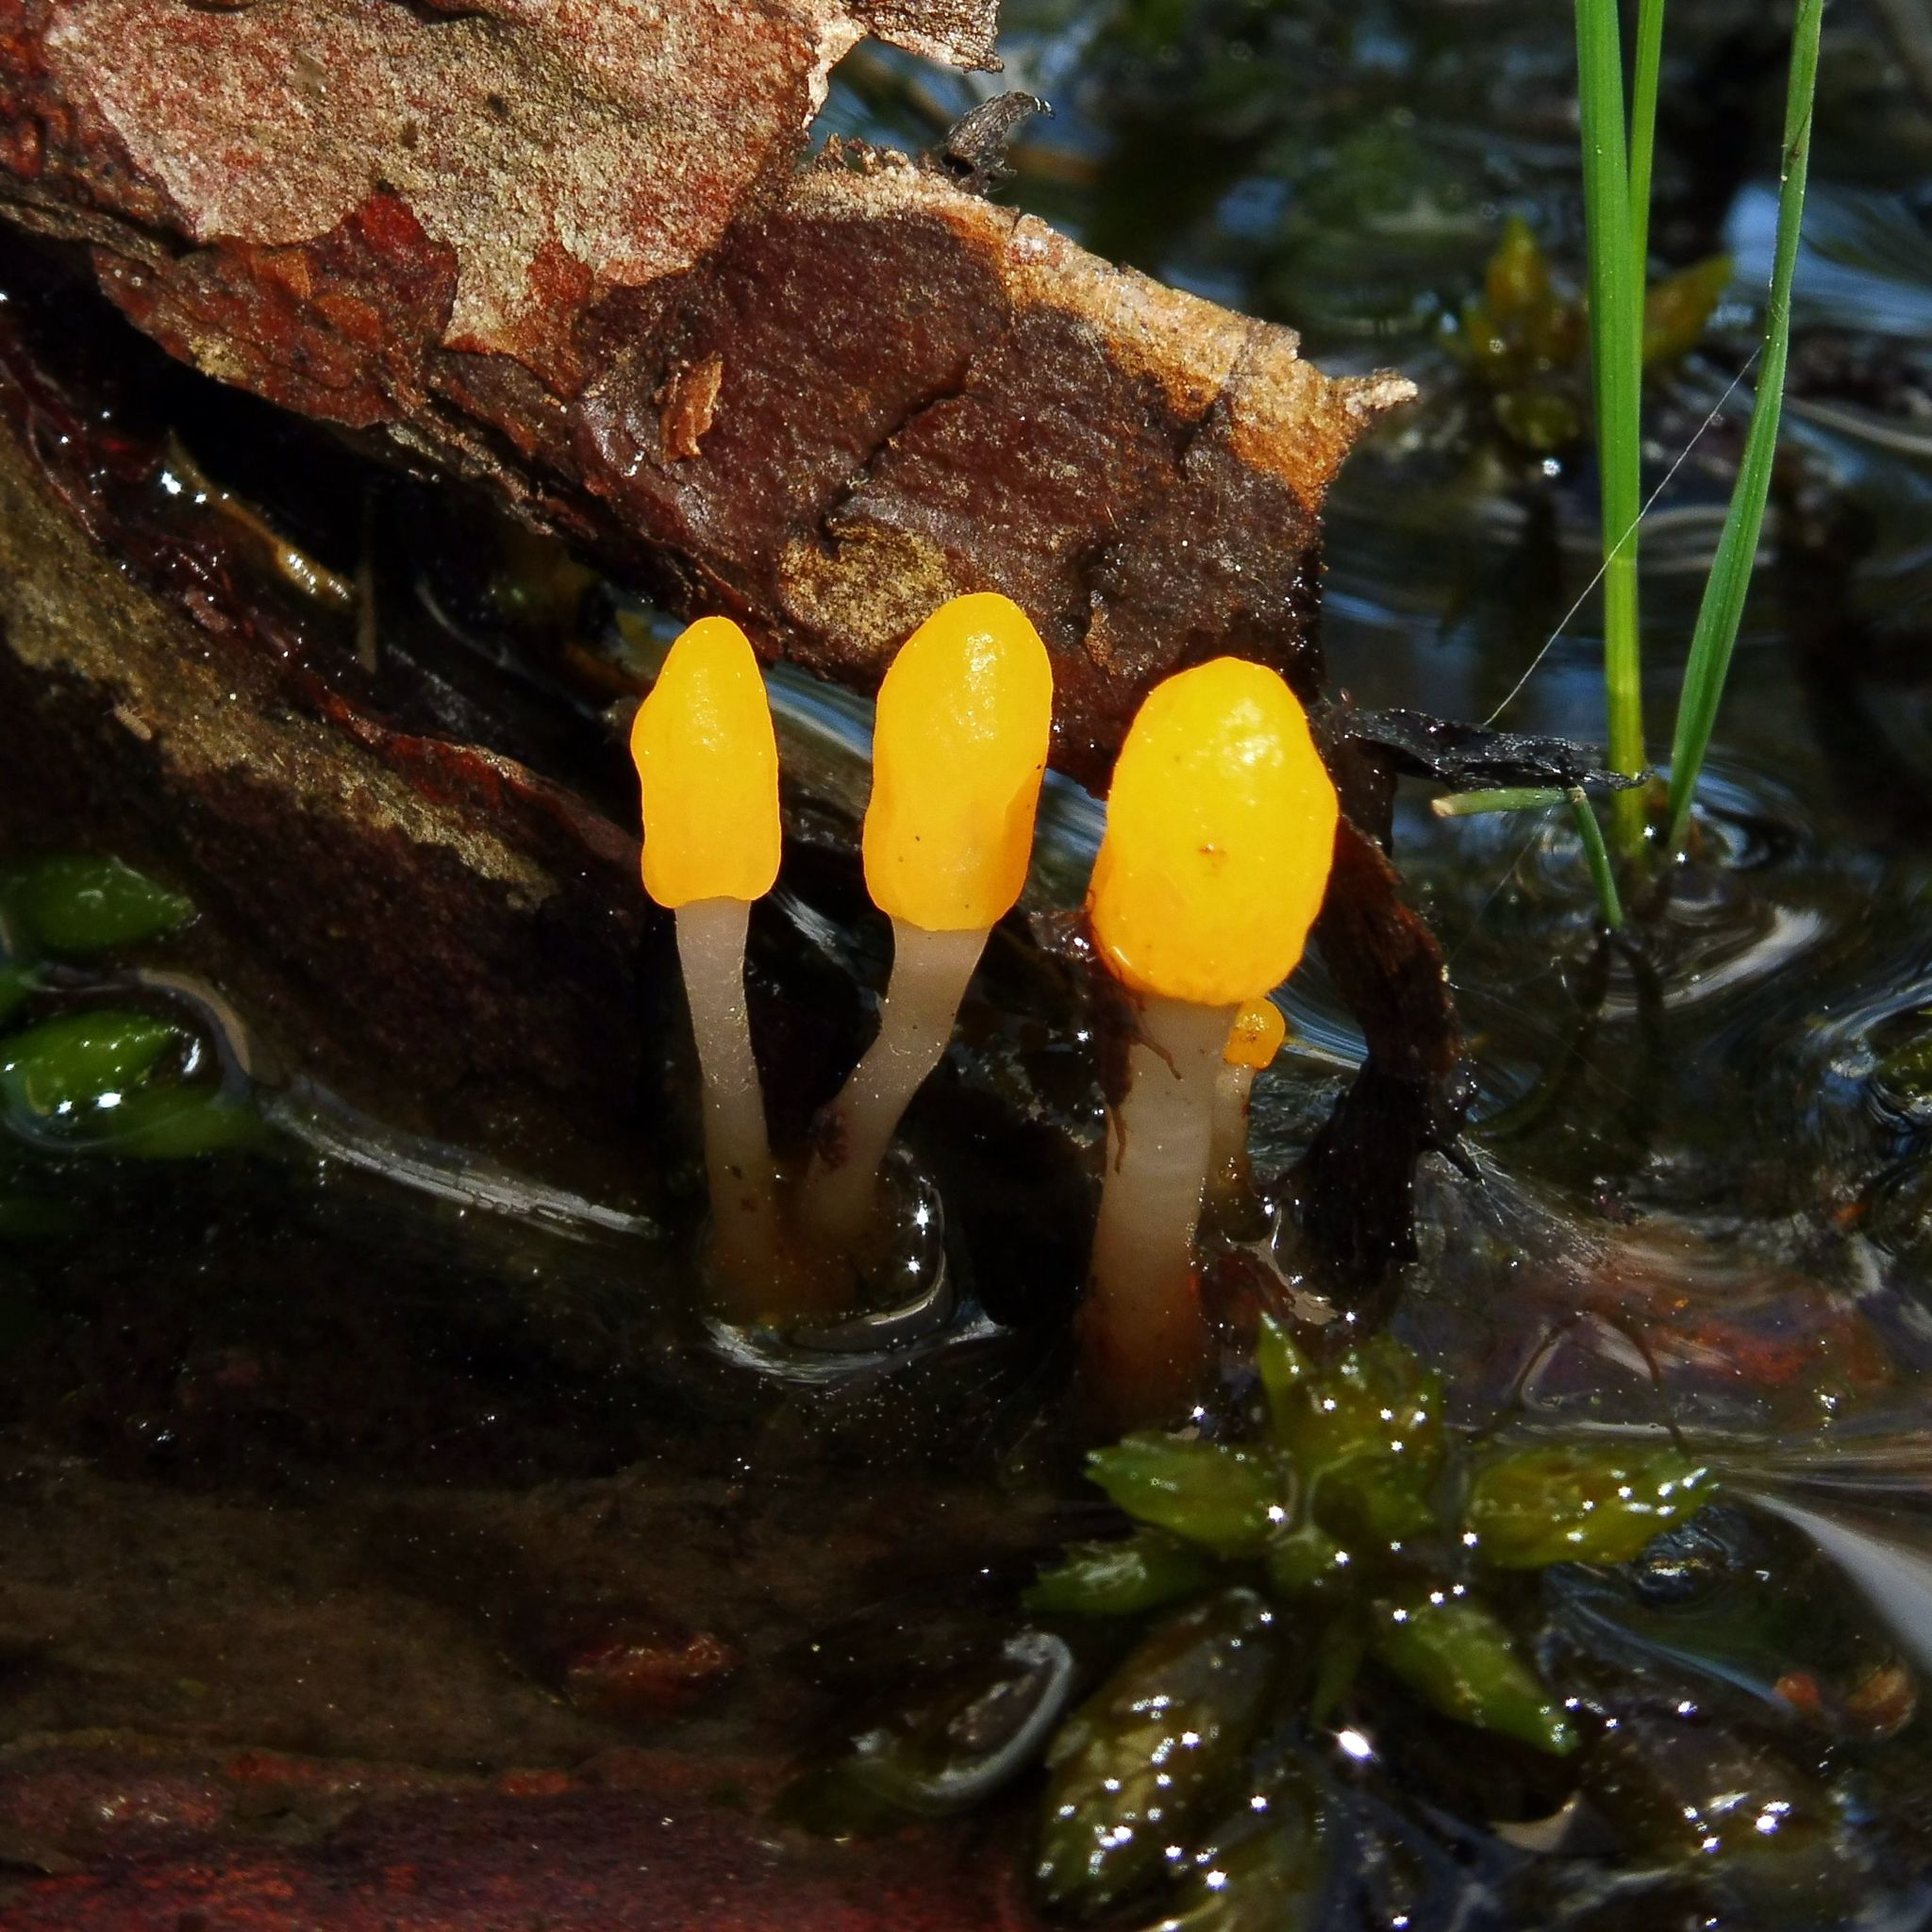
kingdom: Fungi
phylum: Ascomycota
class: Leotiomycetes
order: Helotiales
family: Cenangiaceae
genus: Mitrula
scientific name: Mitrula paludosa
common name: Bog beacon
